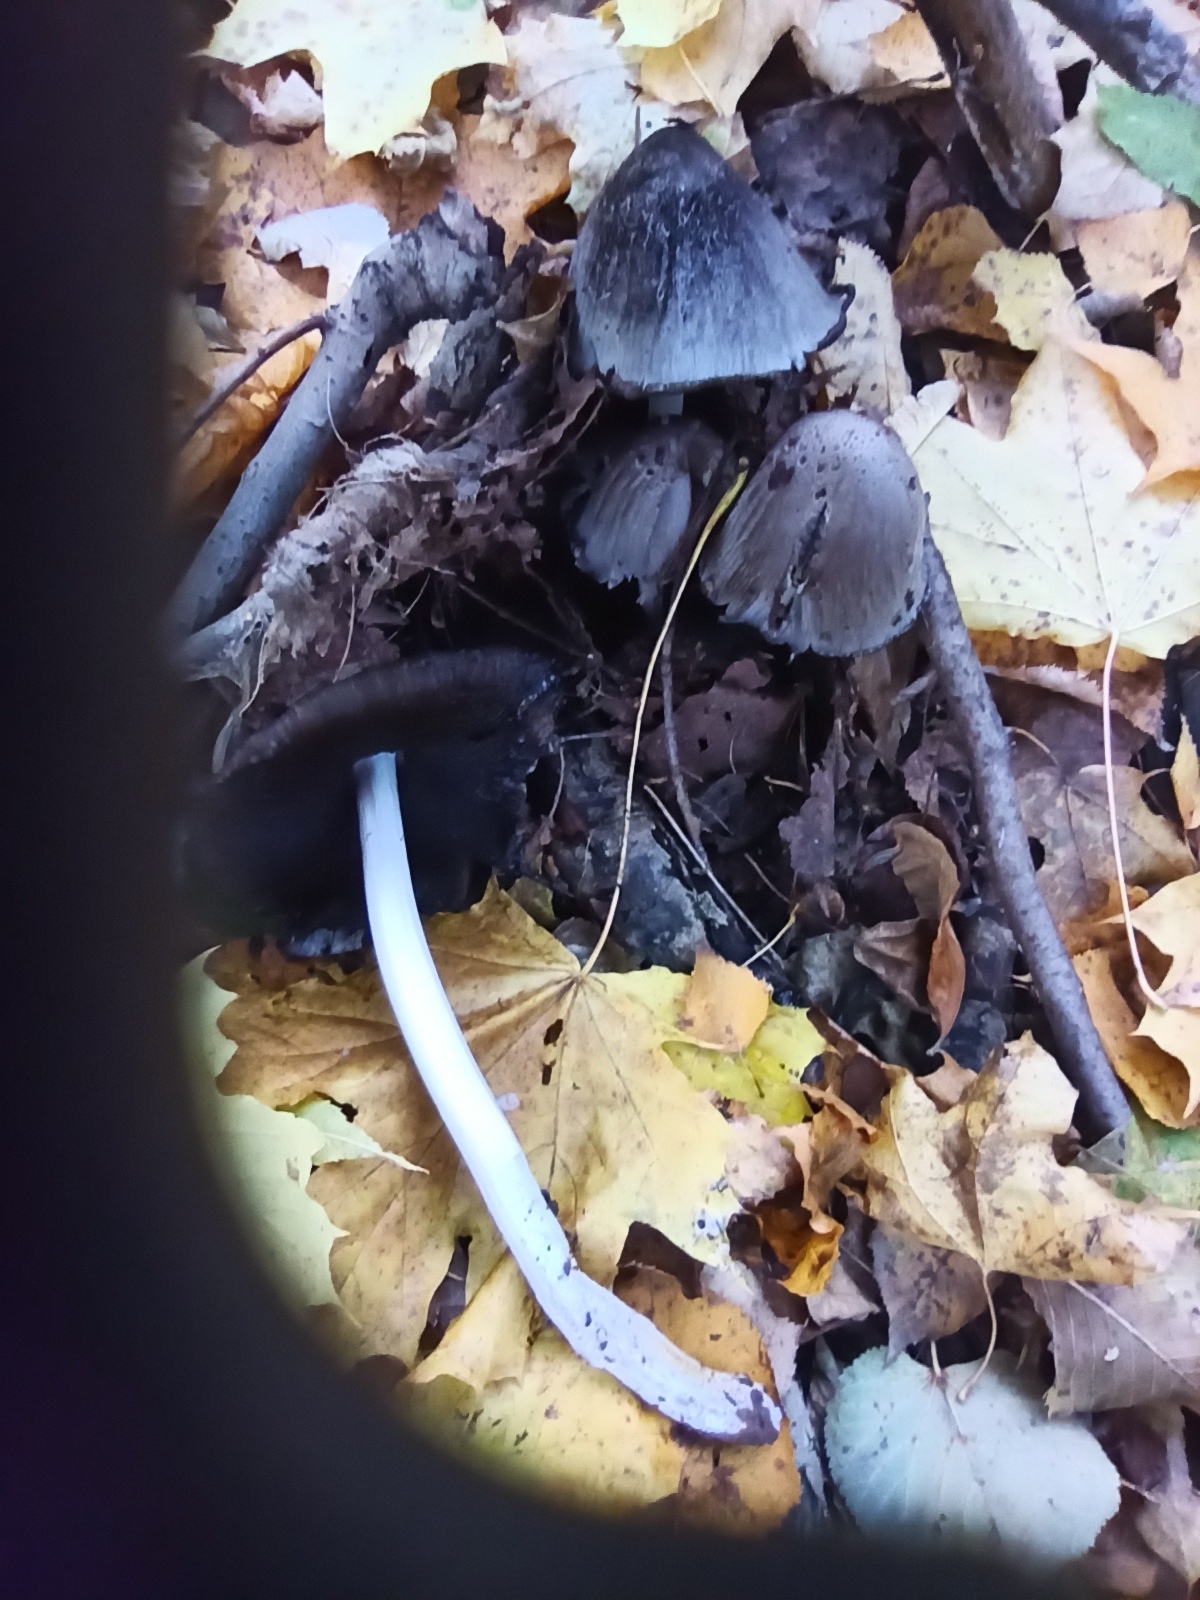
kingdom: Fungi
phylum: Basidiomycota
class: Agaricomycetes
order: Agaricales
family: Psathyrellaceae
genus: Coprinopsis
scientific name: Coprinopsis romagnesiana
